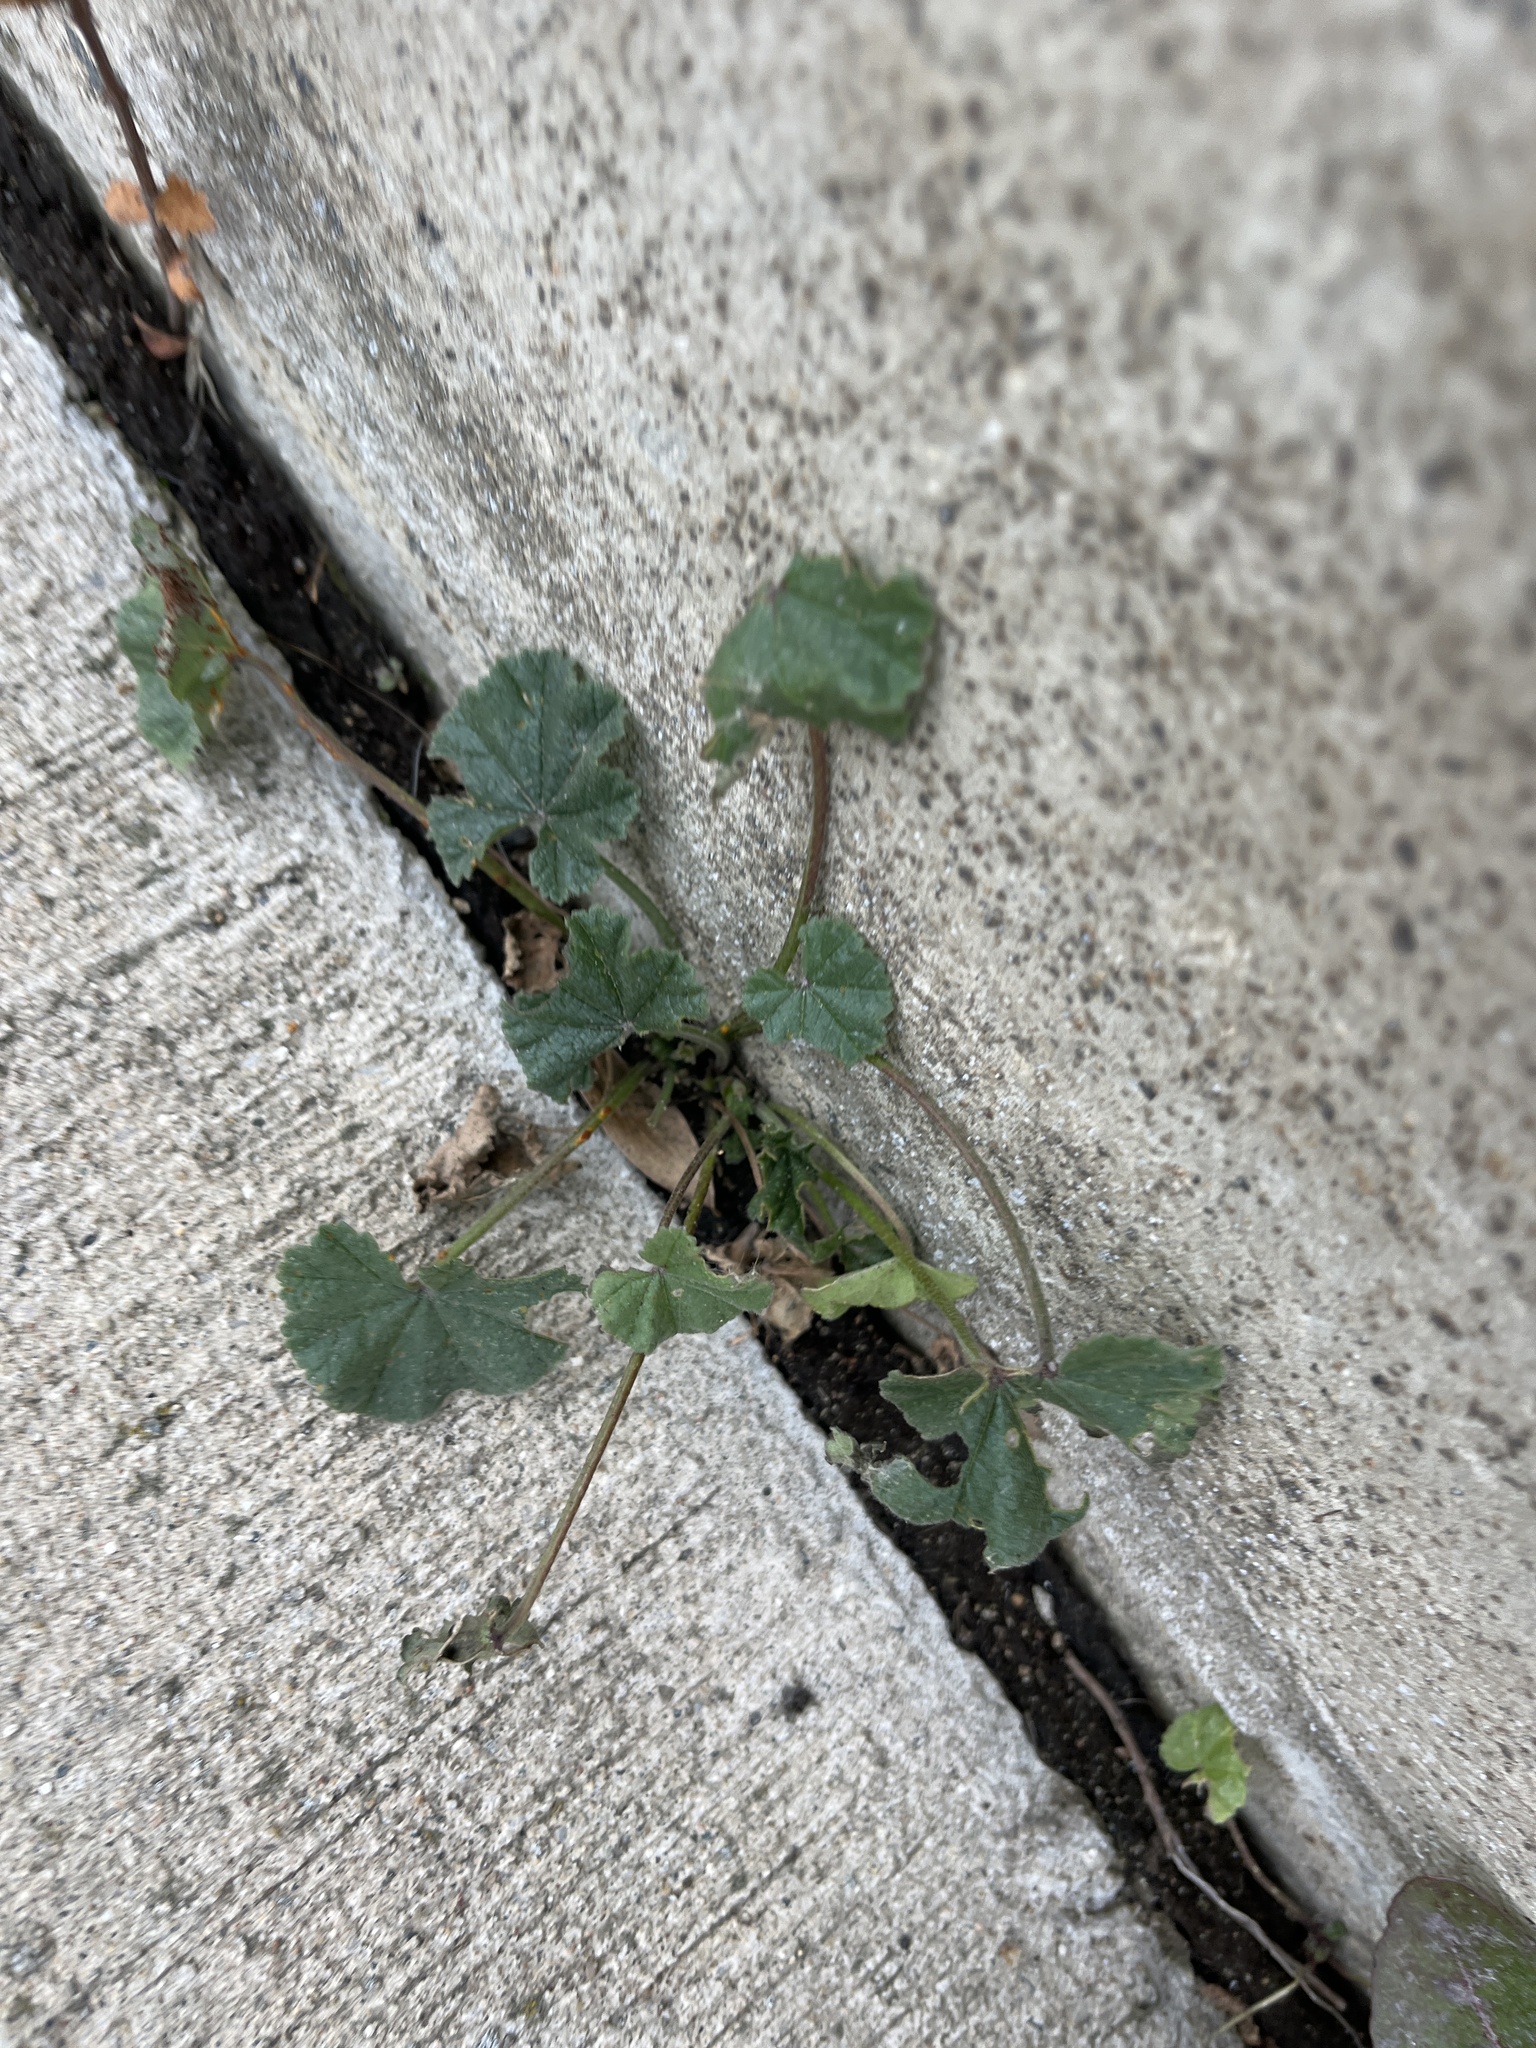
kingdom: Plantae
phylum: Tracheophyta
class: Magnoliopsida
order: Malvales
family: Malvaceae
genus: Malva
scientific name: Malva neglecta
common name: Common mallow
